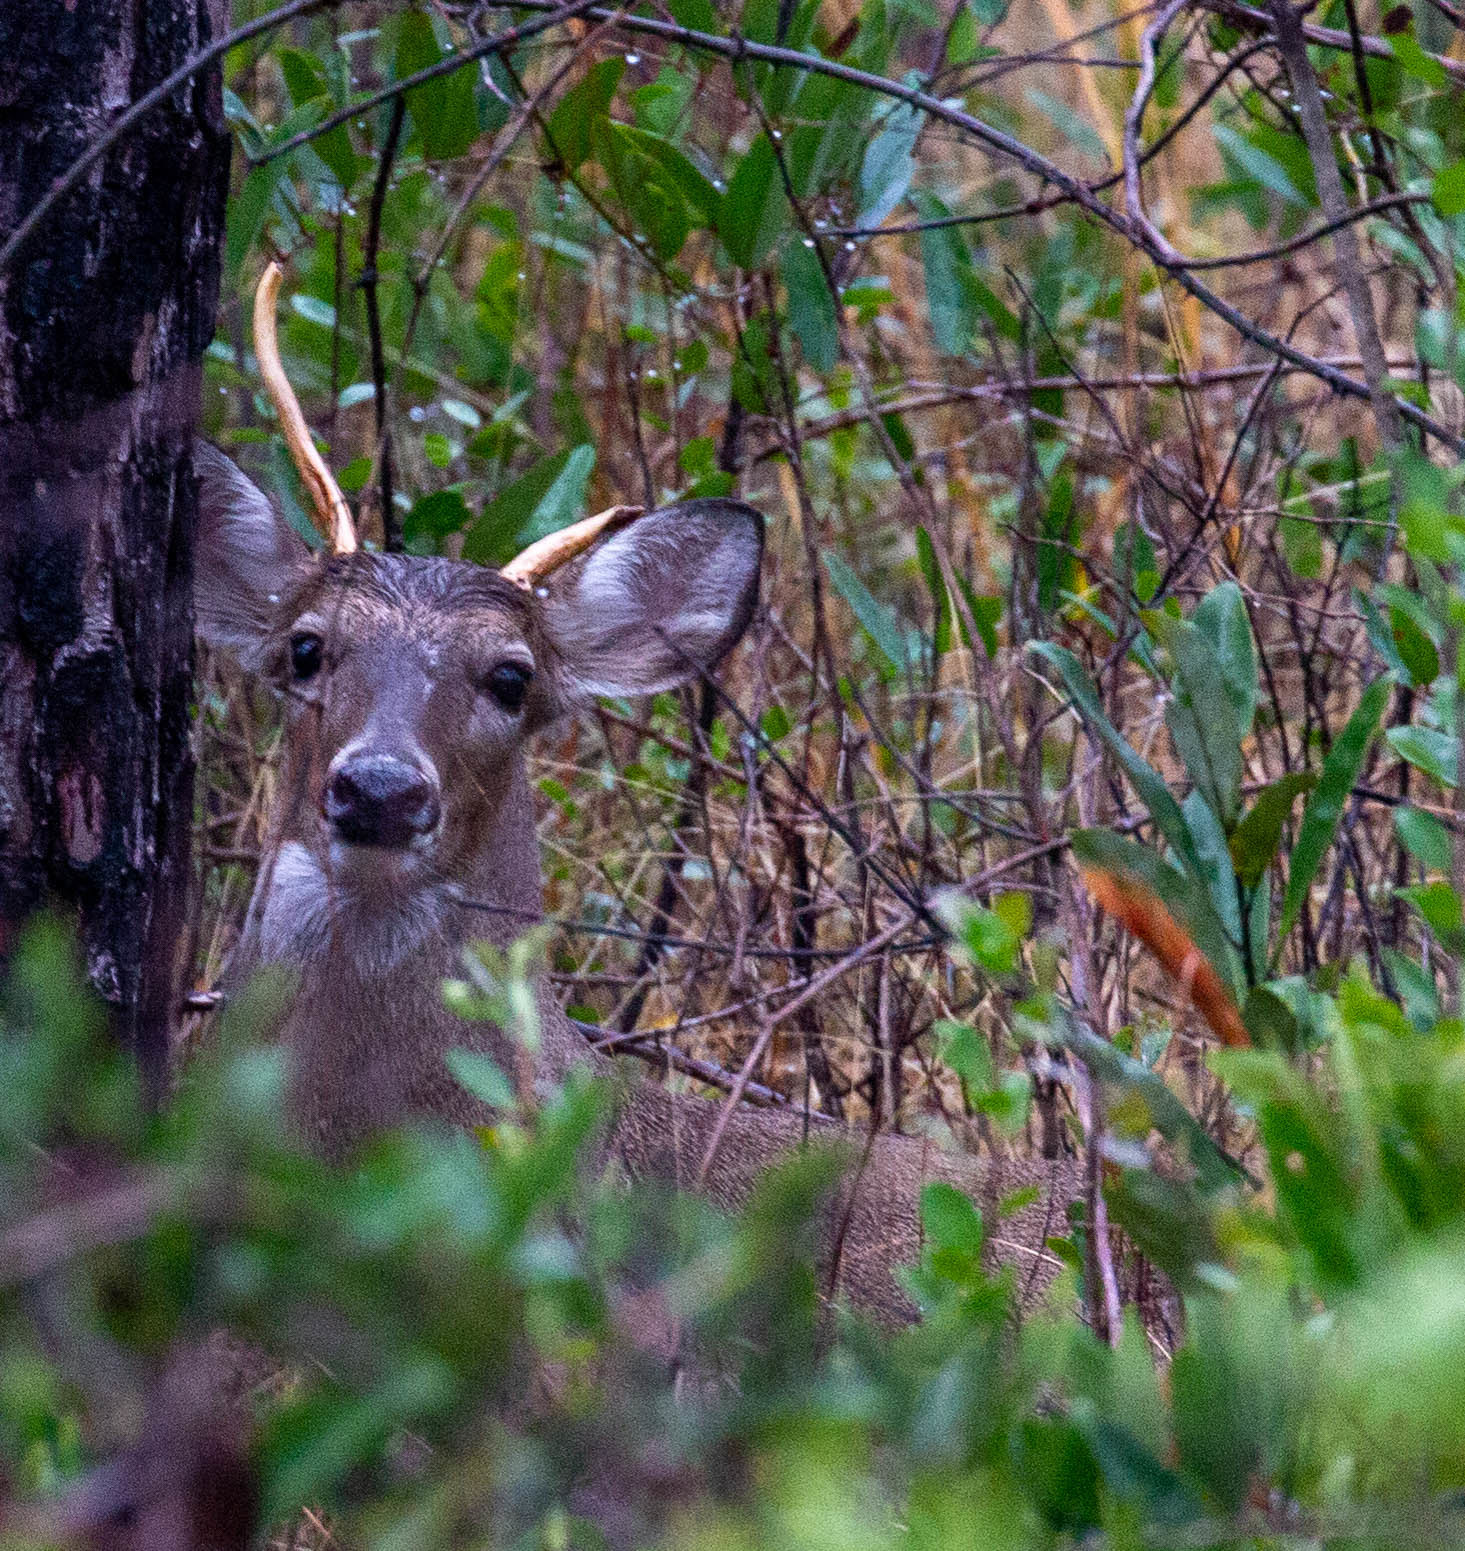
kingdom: Animalia
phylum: Chordata
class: Mammalia
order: Artiodactyla
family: Cervidae
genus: Odocoileus
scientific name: Odocoileus virginianus
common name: White-tailed deer
